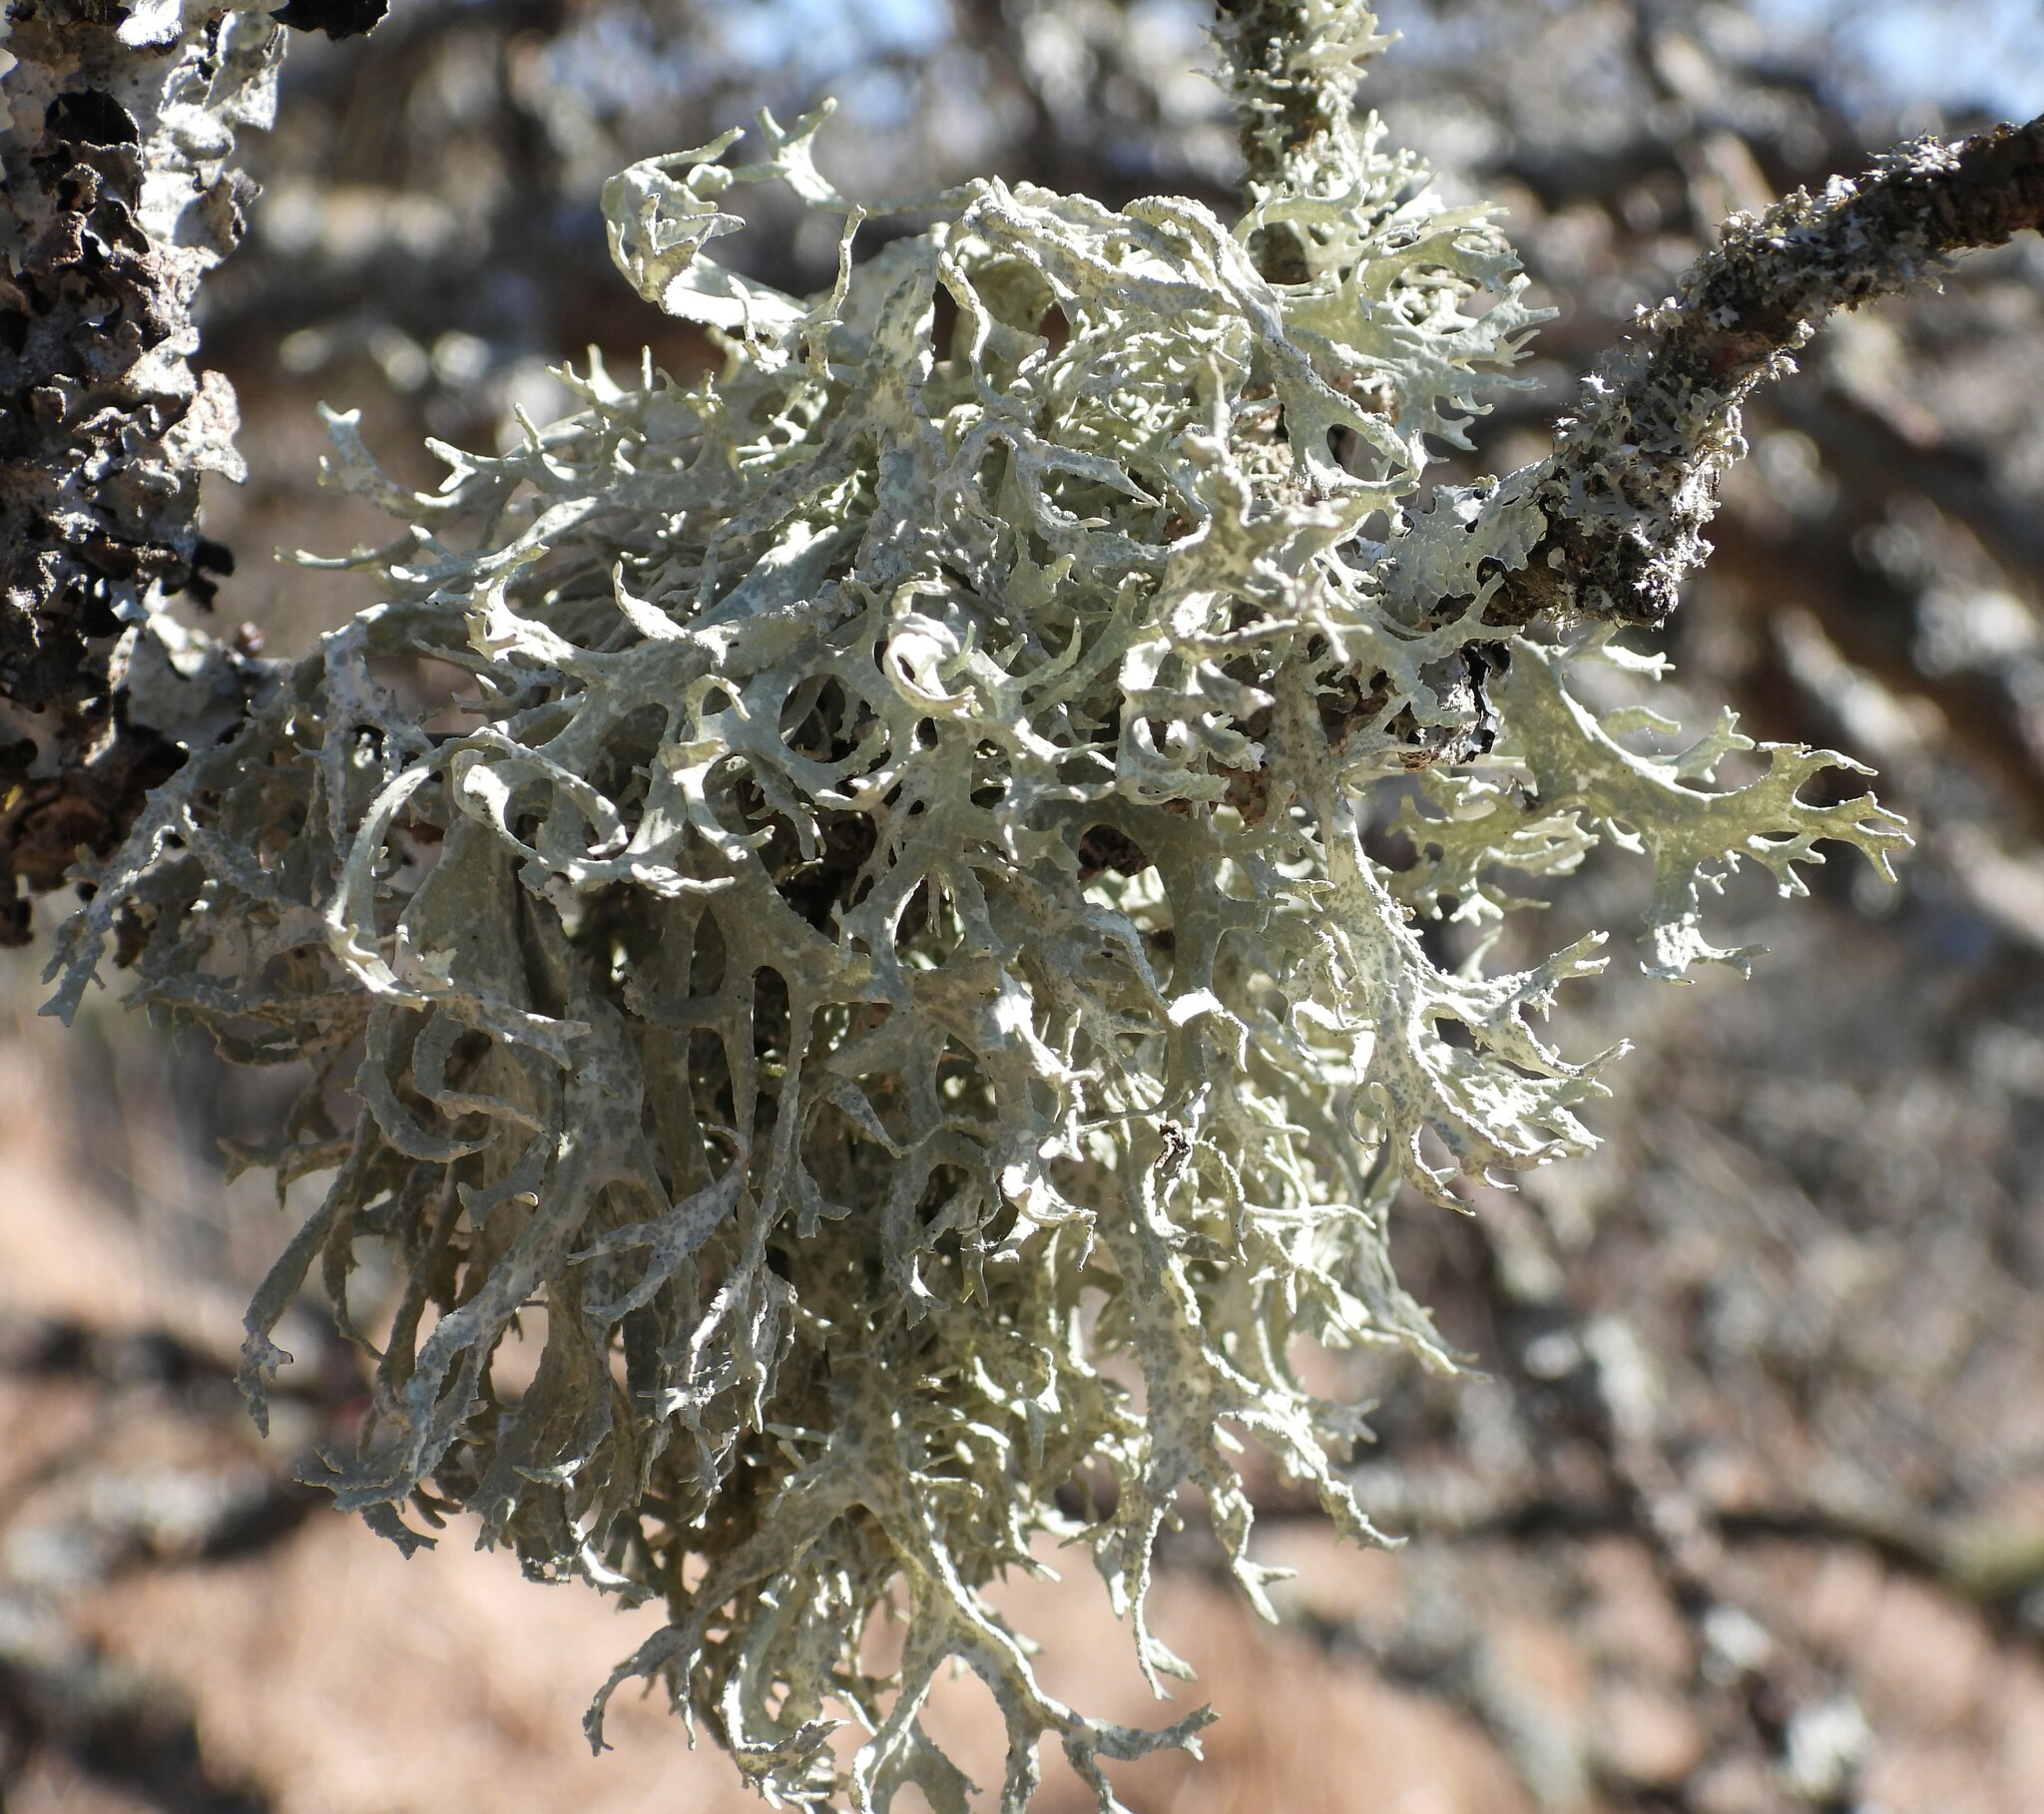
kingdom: Fungi
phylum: Ascomycota
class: Lecanoromycetes
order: Lecanorales
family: Parmeliaceae
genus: Evernia
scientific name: Evernia prunastri
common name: Oak moss
